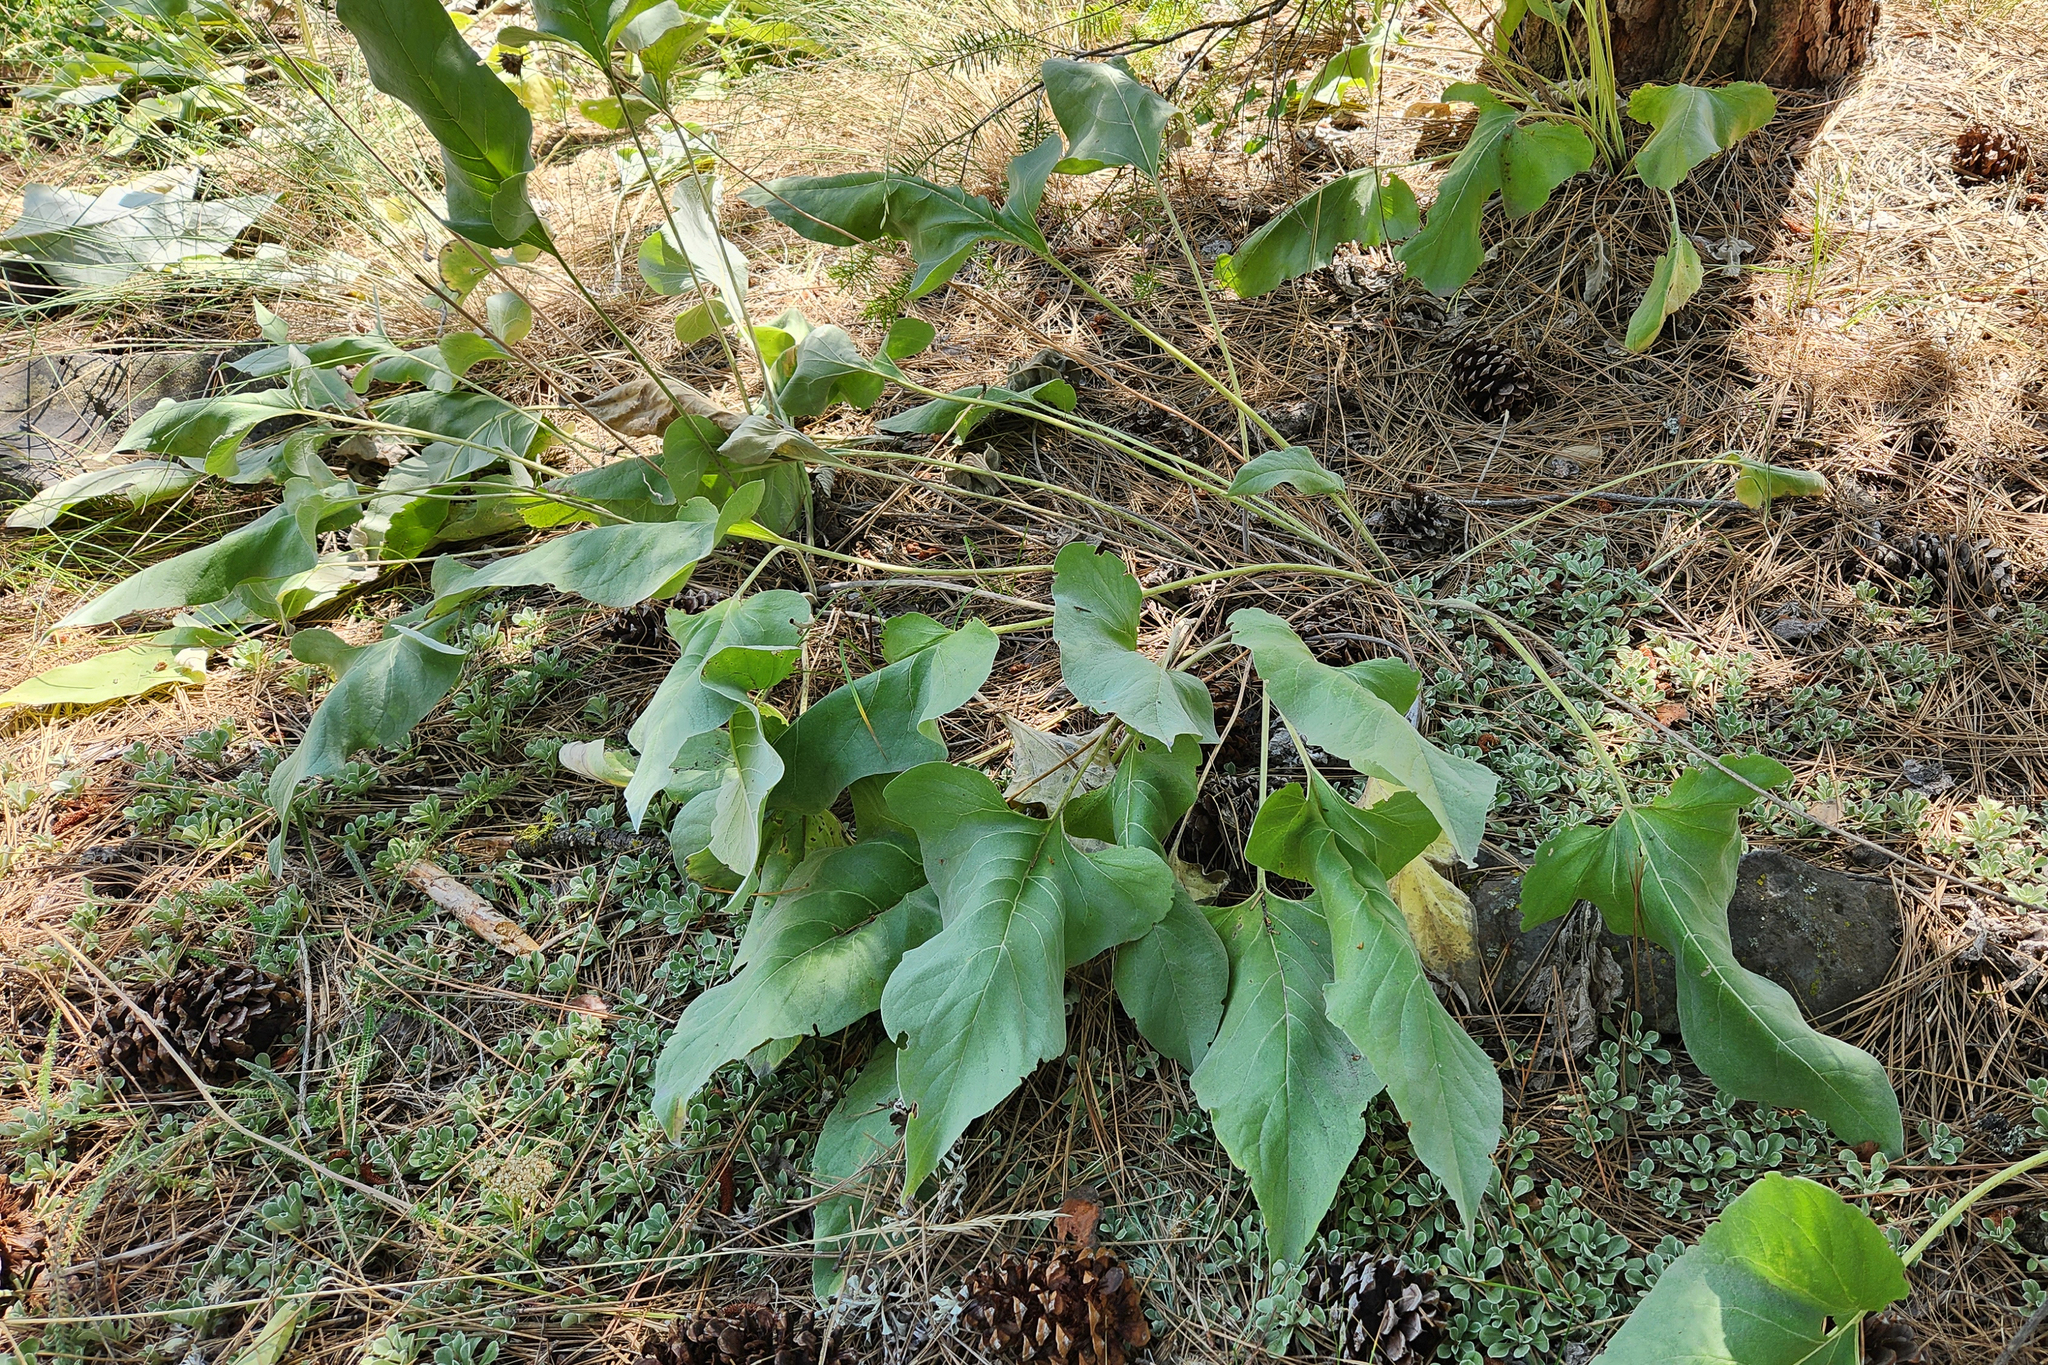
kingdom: Plantae
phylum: Tracheophyta
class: Magnoliopsida
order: Asterales
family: Asteraceae
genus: Wyethia
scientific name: Wyethia sagittata
